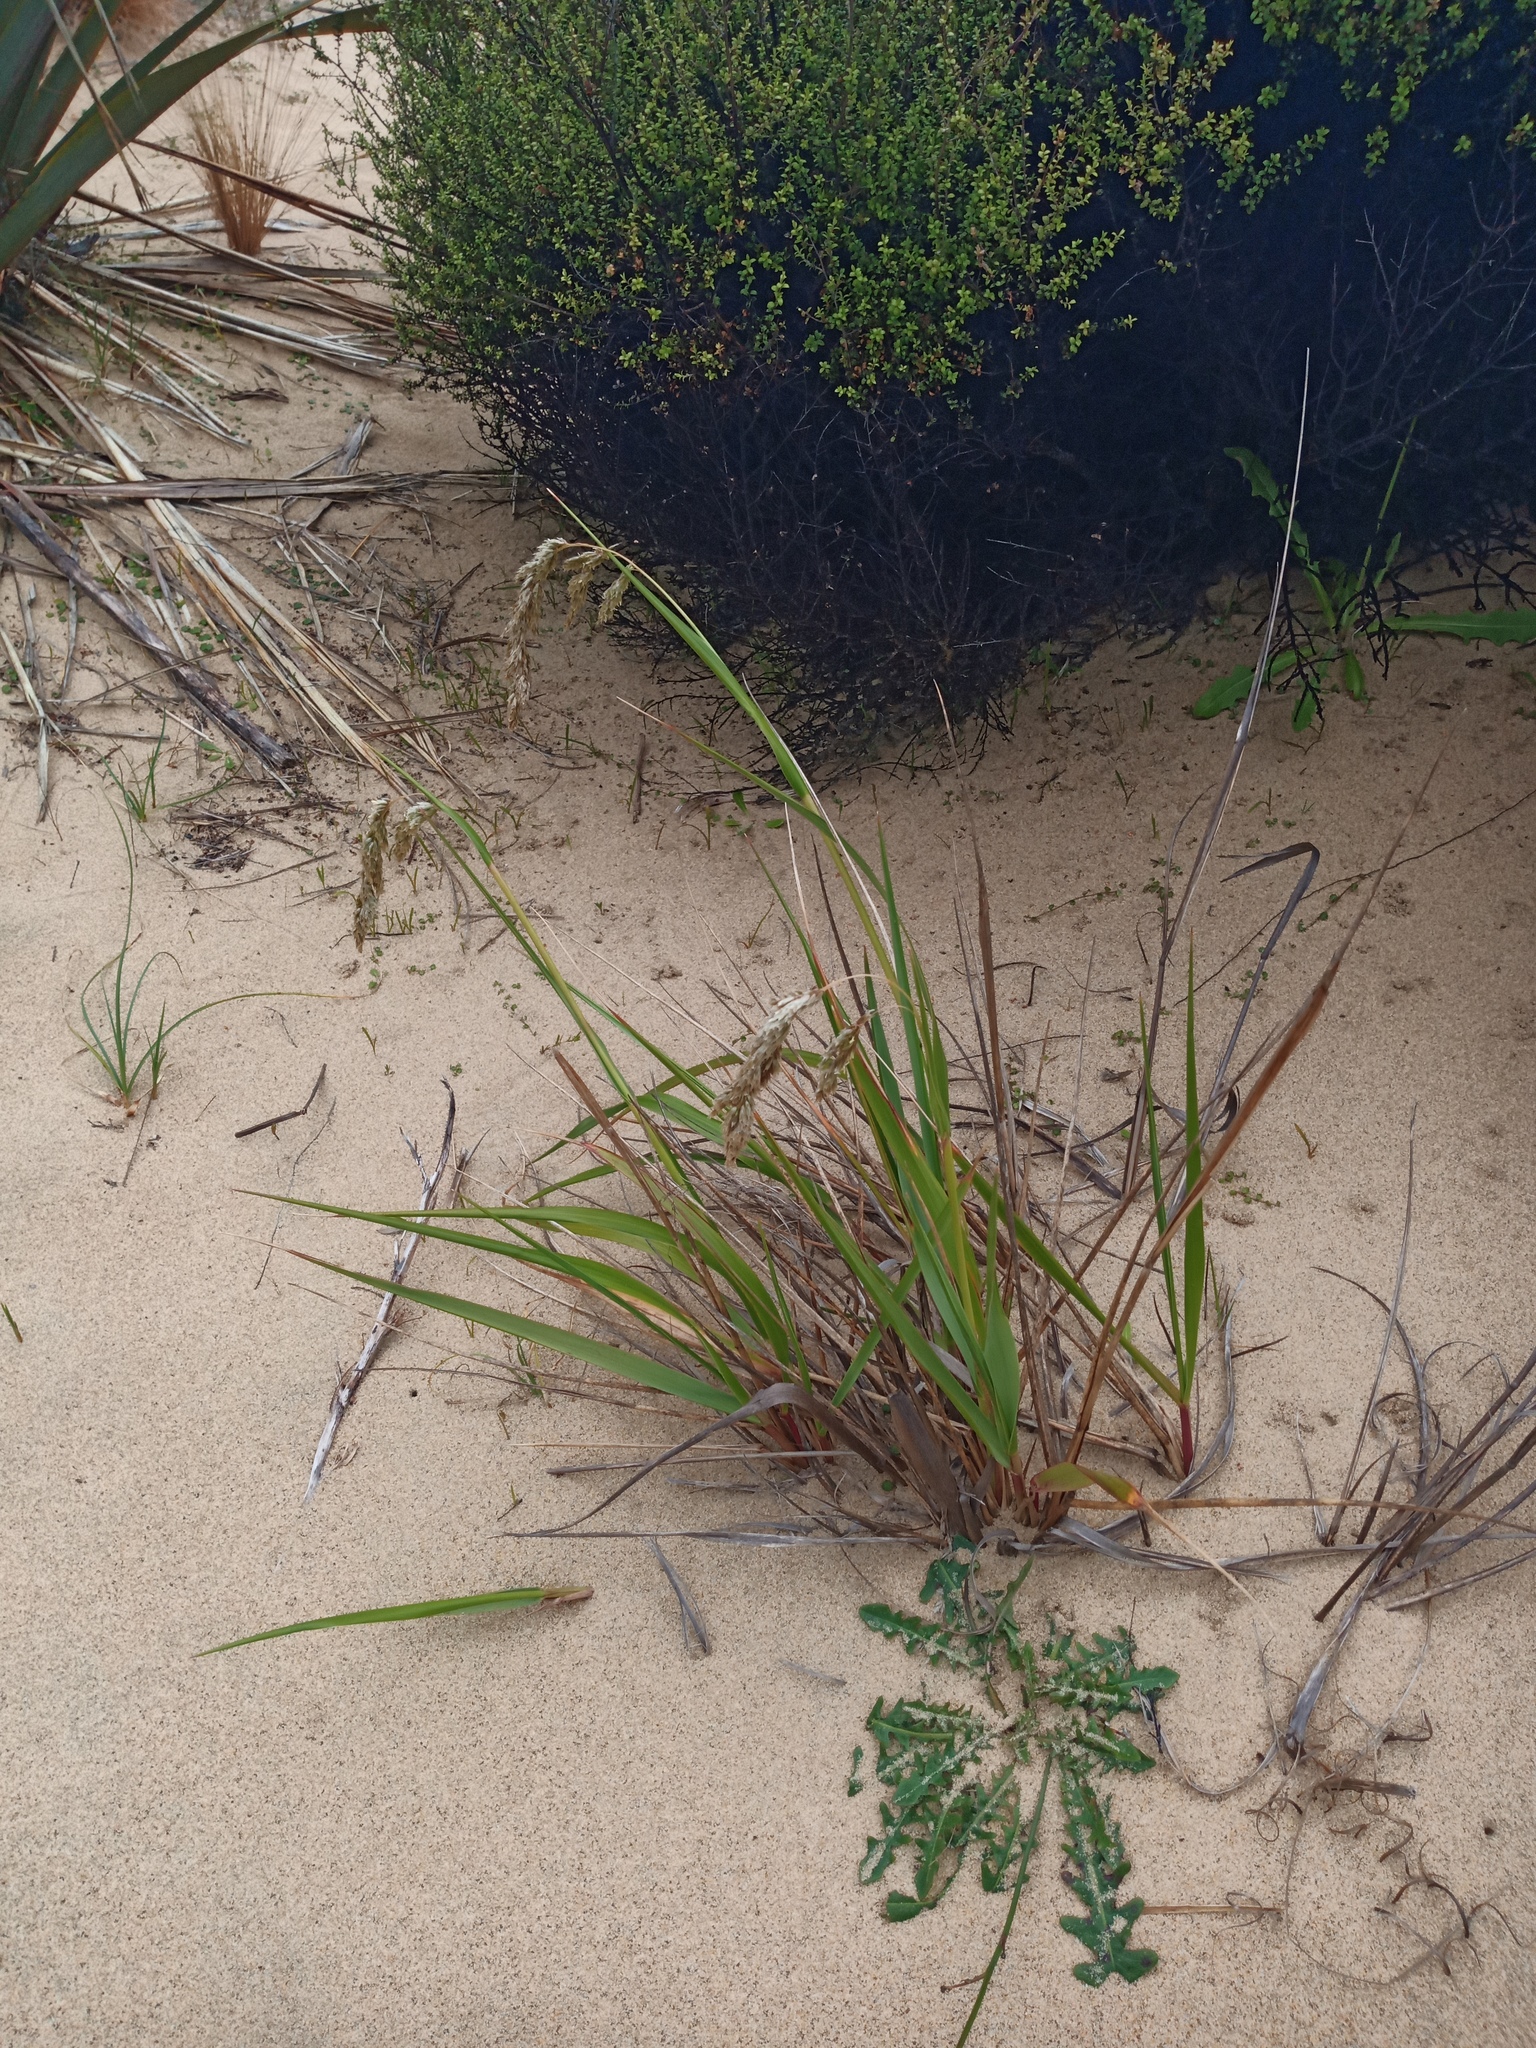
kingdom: Plantae
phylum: Tracheophyta
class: Liliopsida
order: Poales
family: Poaceae
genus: Anthoxanthum
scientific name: Anthoxanthum redolens
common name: Sweet holy grass
